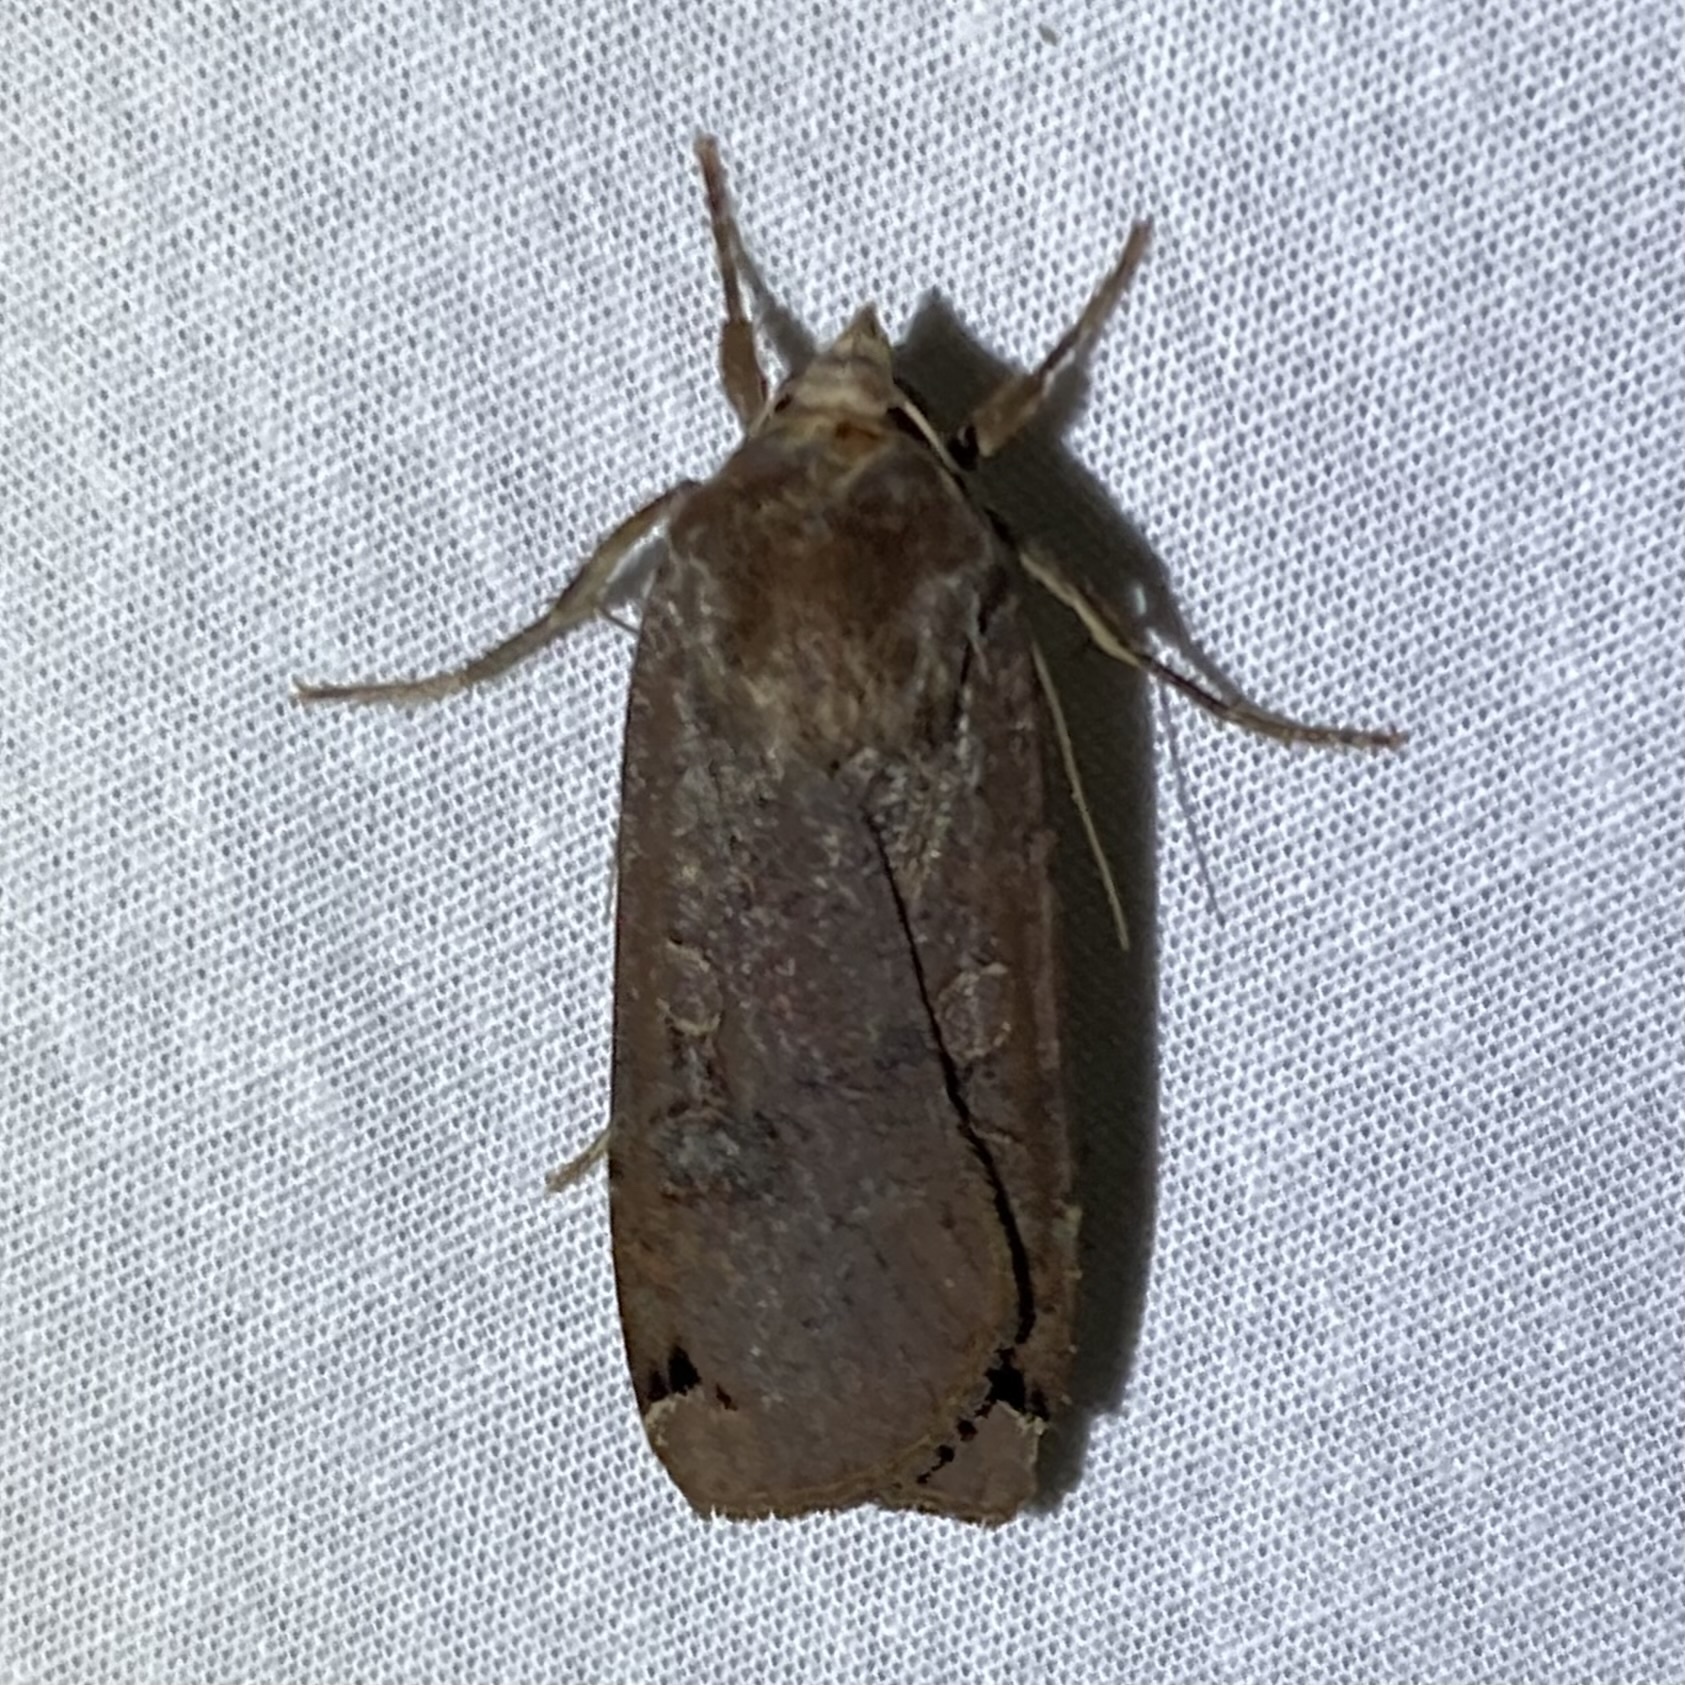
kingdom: Animalia
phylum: Arthropoda
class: Insecta
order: Lepidoptera
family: Noctuidae
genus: Noctua
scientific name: Noctua pronuba
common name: Large yellow underwing
